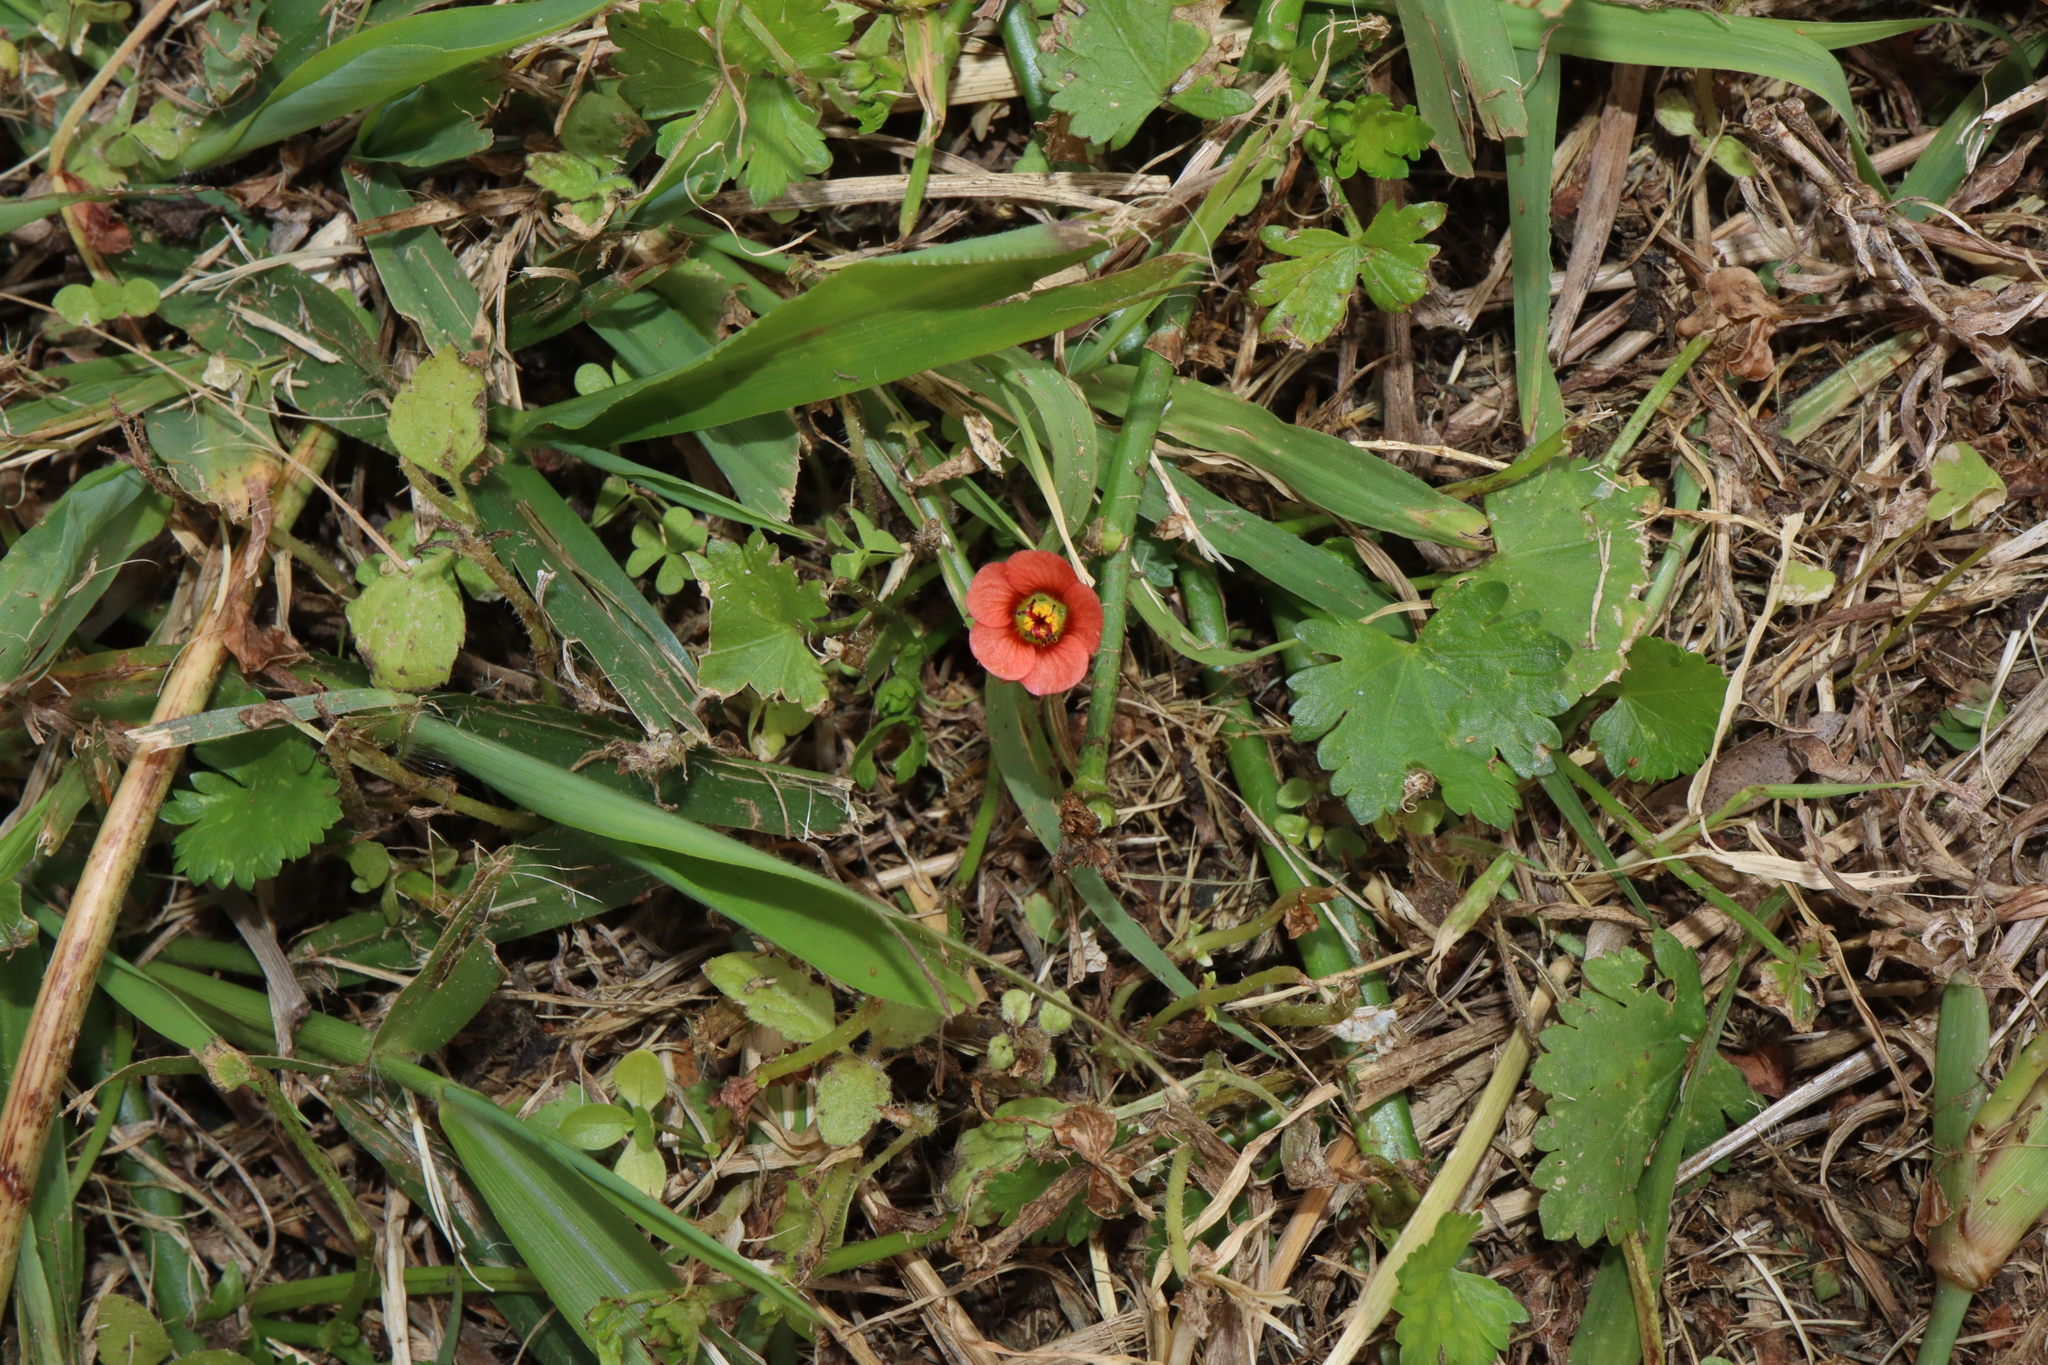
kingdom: Plantae
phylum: Tracheophyta
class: Magnoliopsida
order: Malvales
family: Malvaceae
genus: Modiola
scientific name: Modiola caroliniana
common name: Carolina bristlemallow
